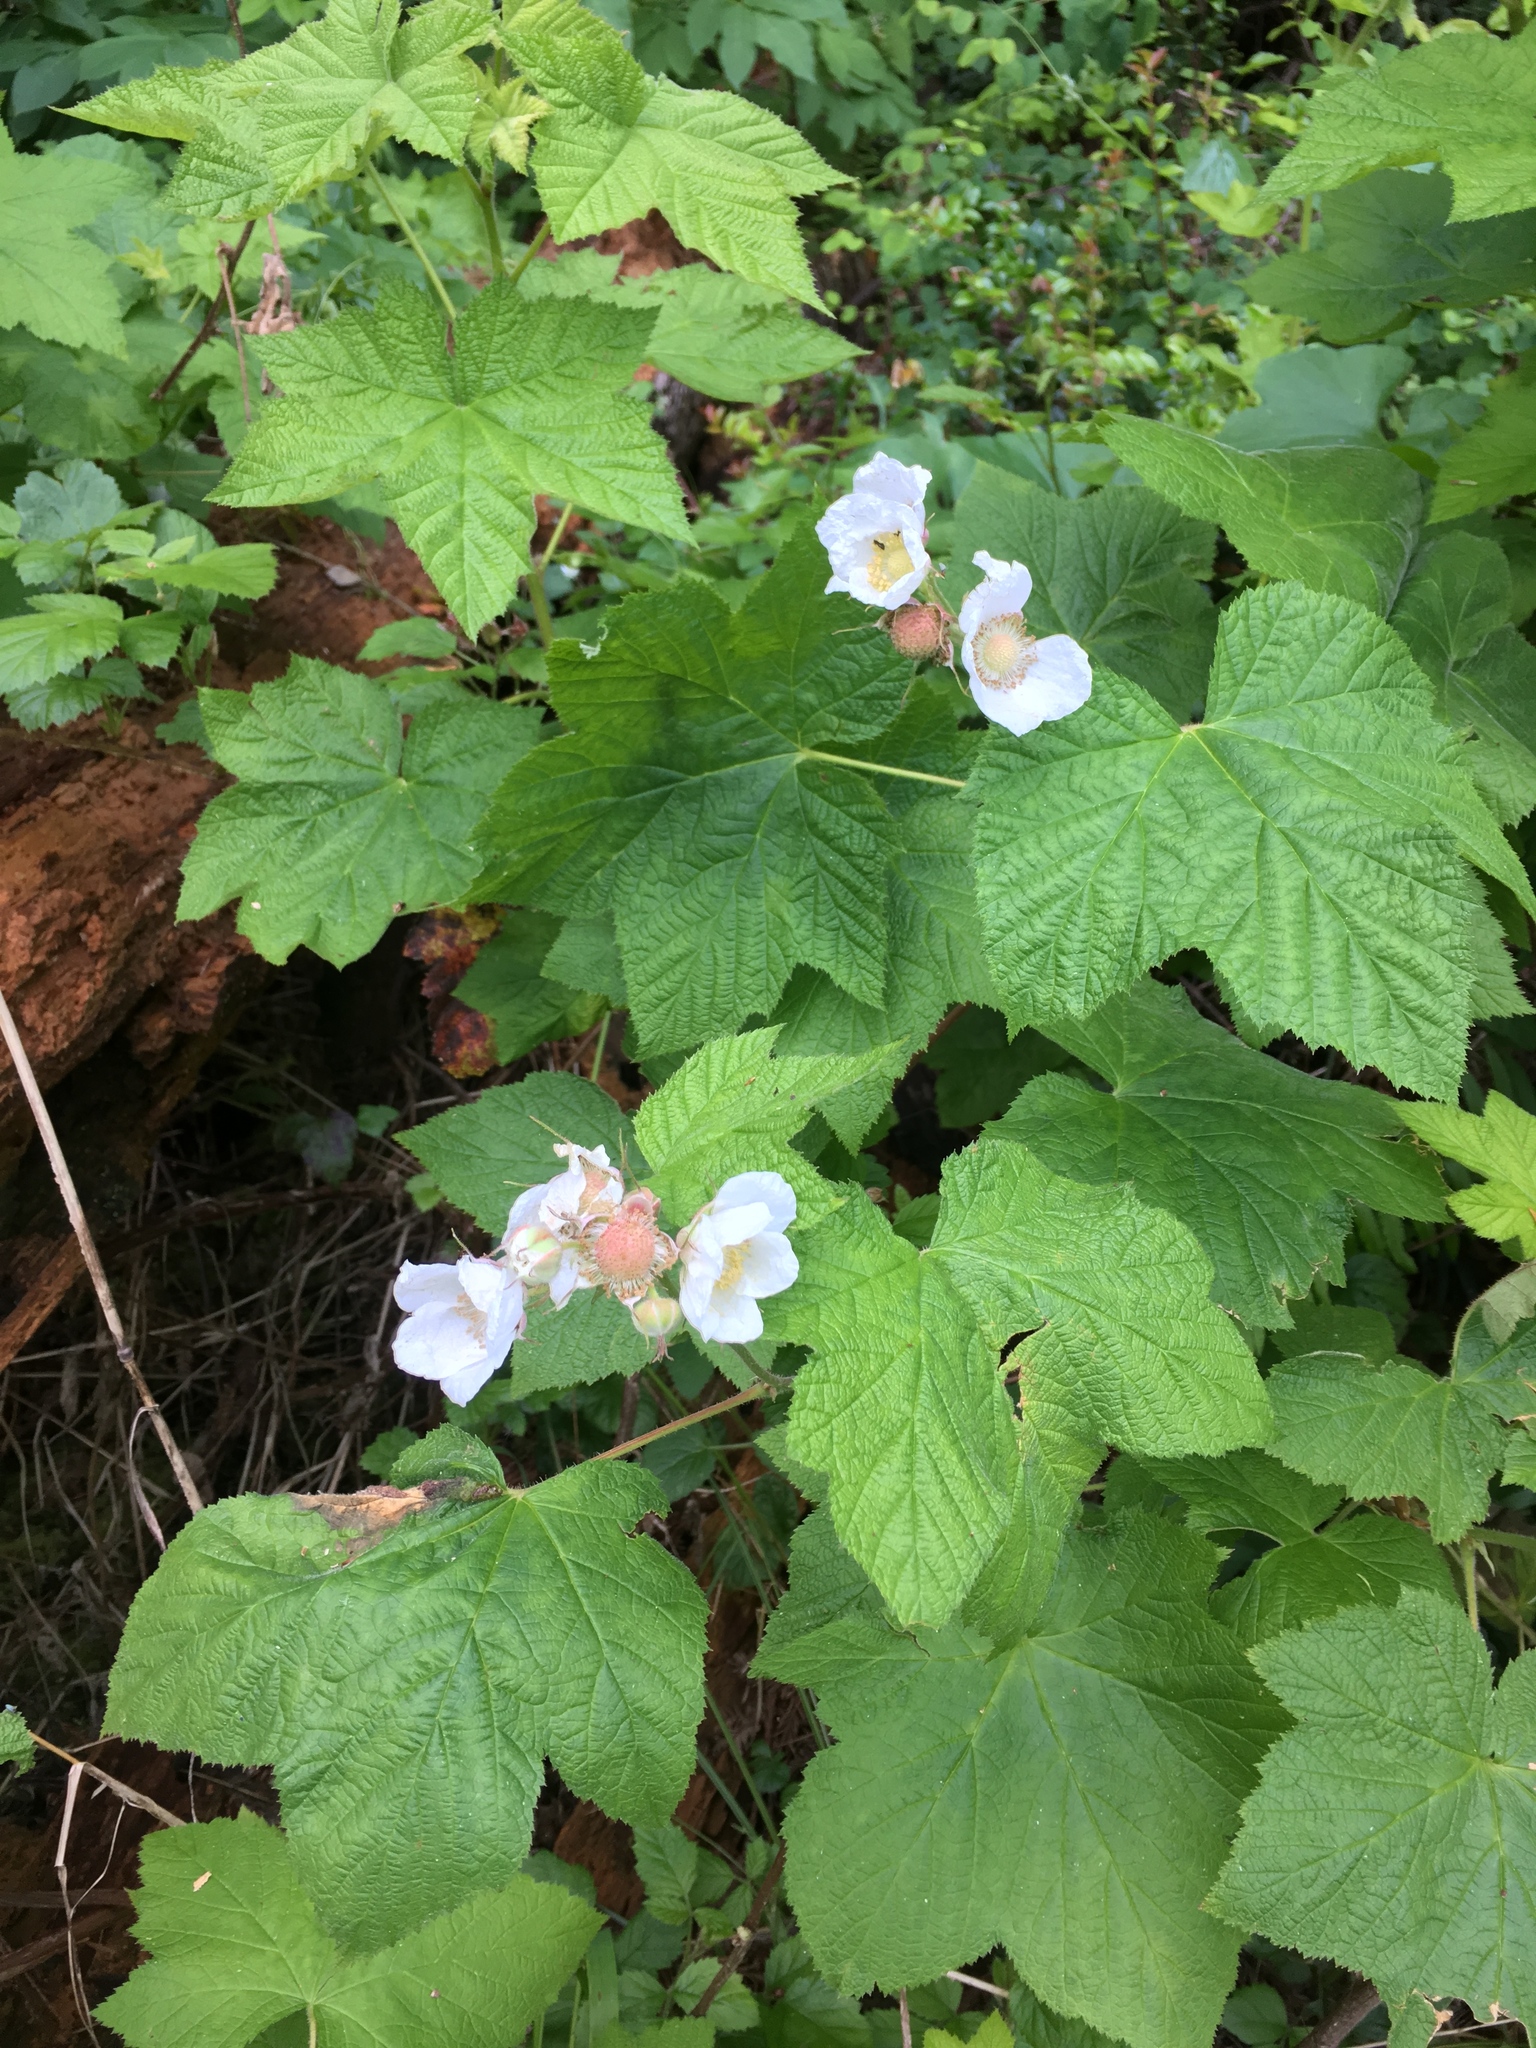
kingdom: Plantae
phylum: Tracheophyta
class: Magnoliopsida
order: Rosales
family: Rosaceae
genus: Rubus
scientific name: Rubus parviflorus
